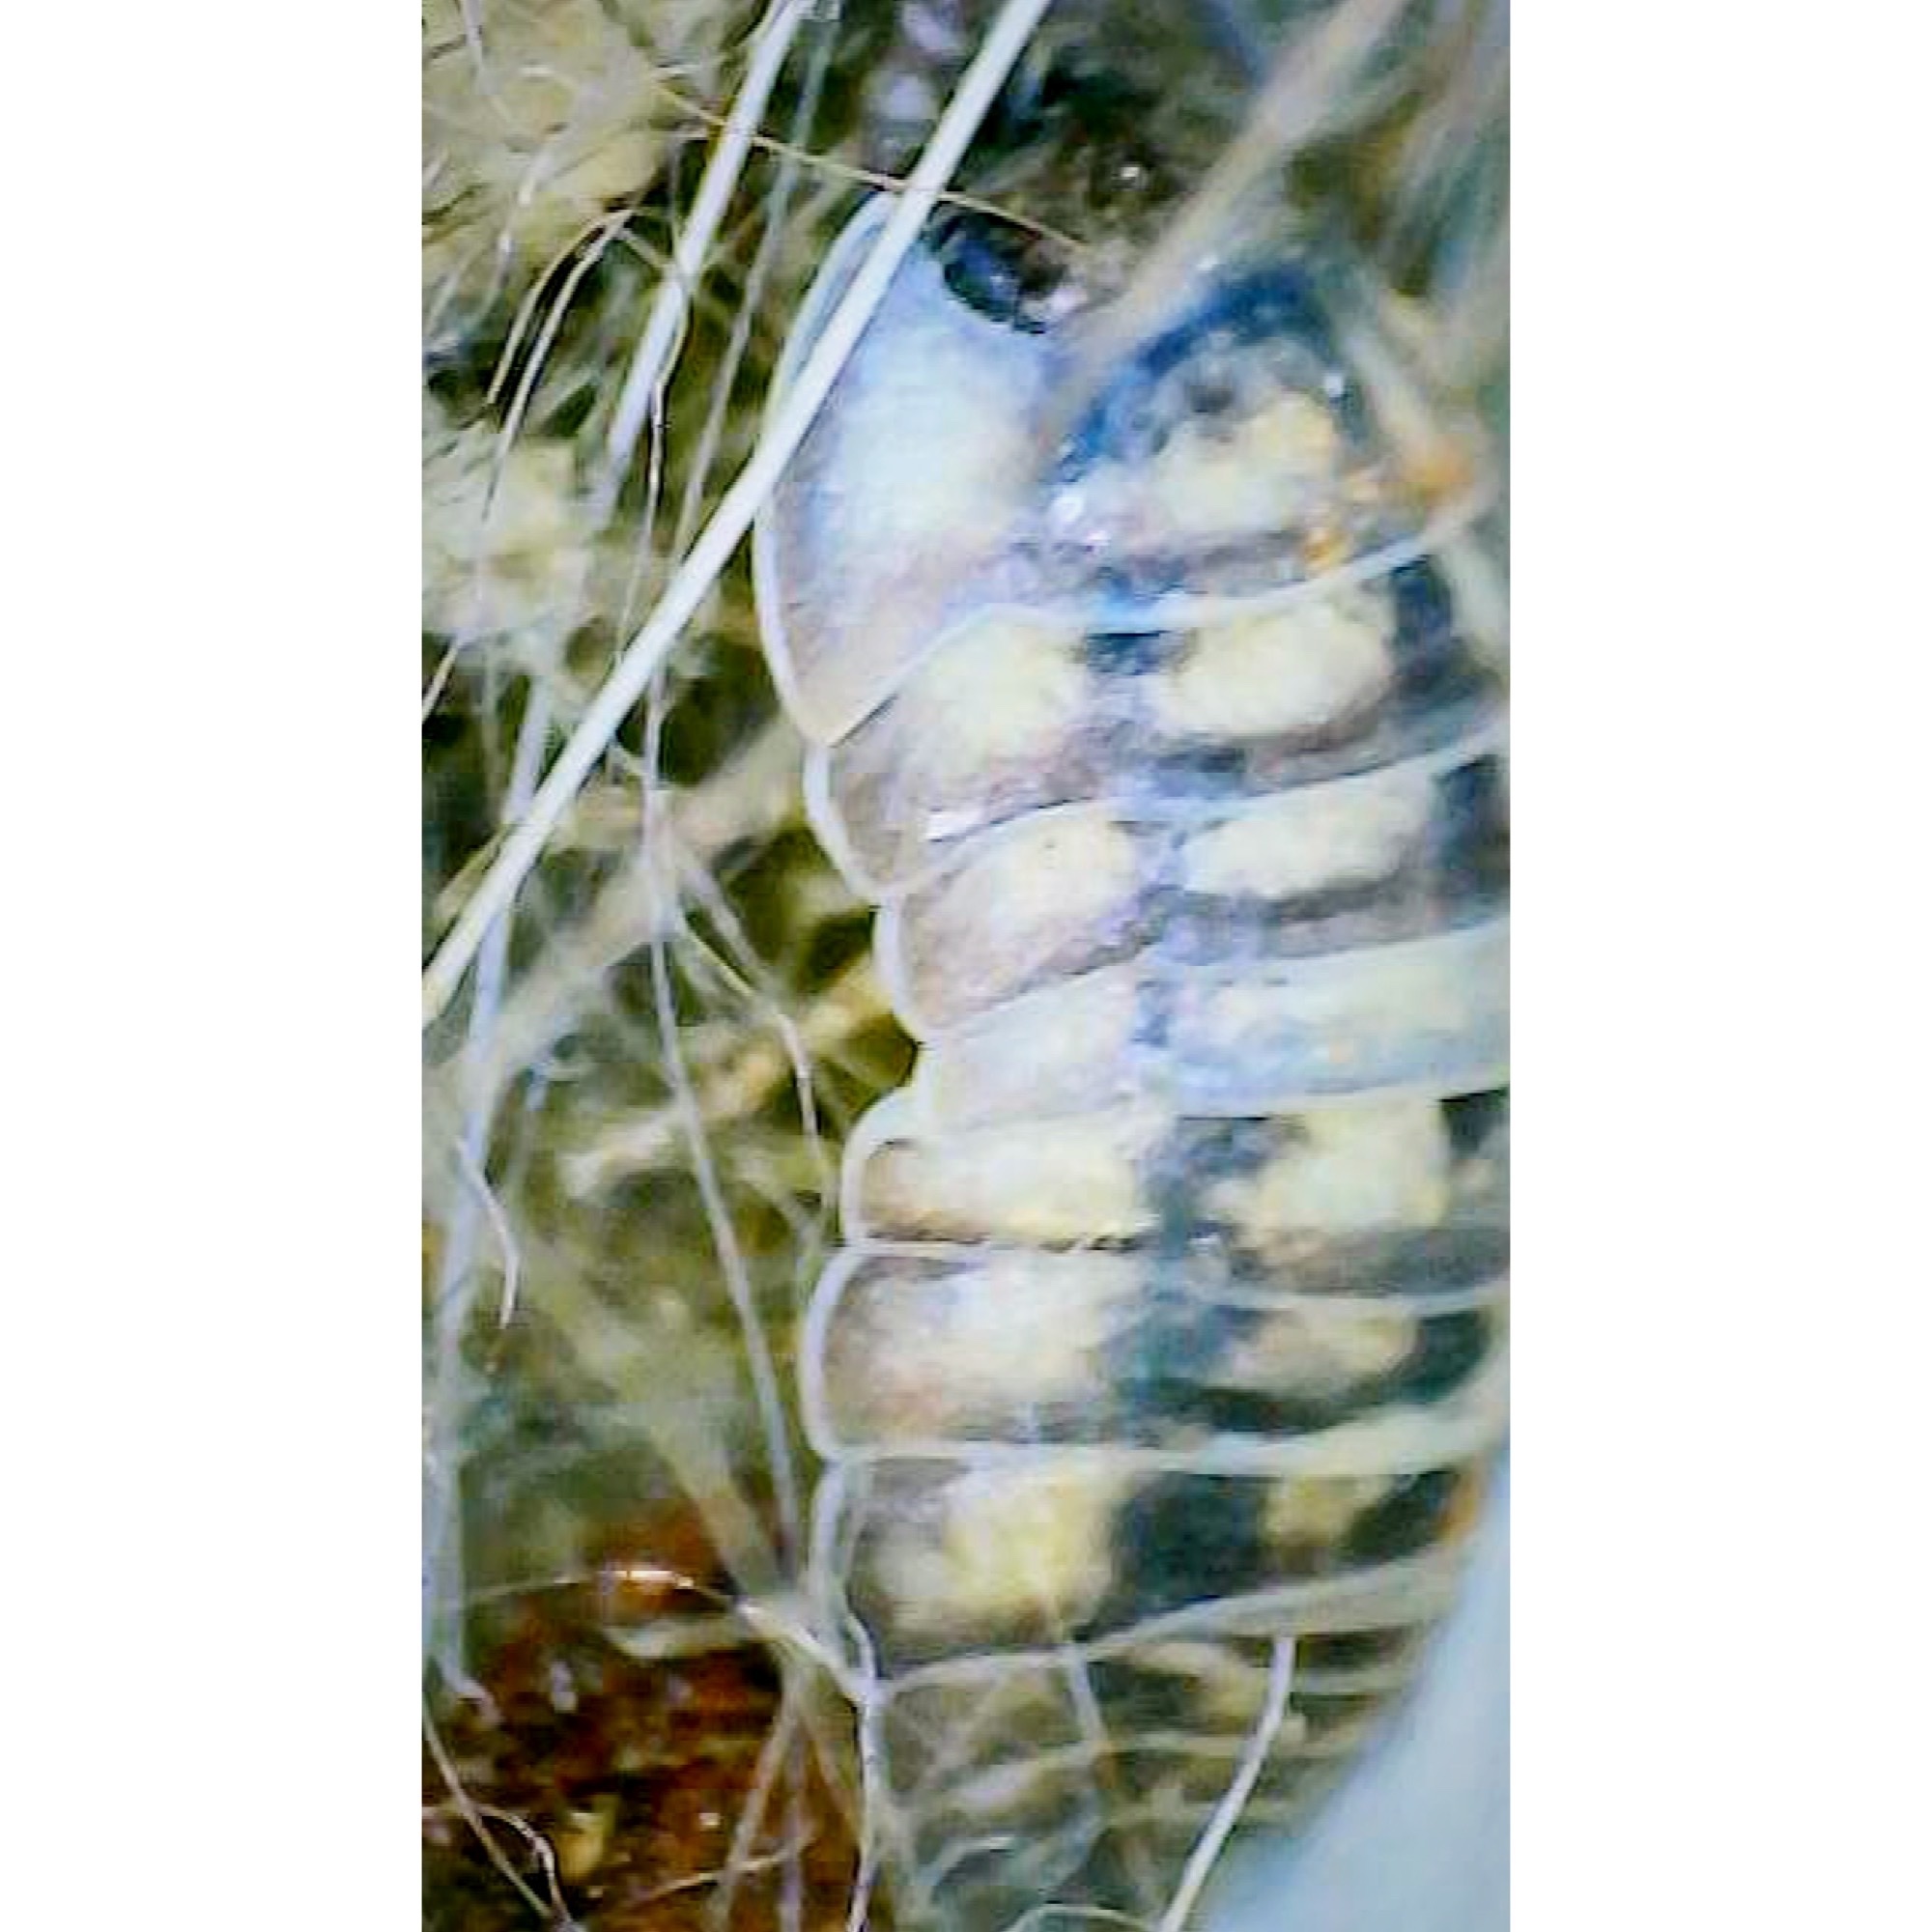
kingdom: Animalia
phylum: Arthropoda
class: Malacostraca
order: Isopoda
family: Armadillidiidae
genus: Armadillidium
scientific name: Armadillidium nasatum
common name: Isopod
